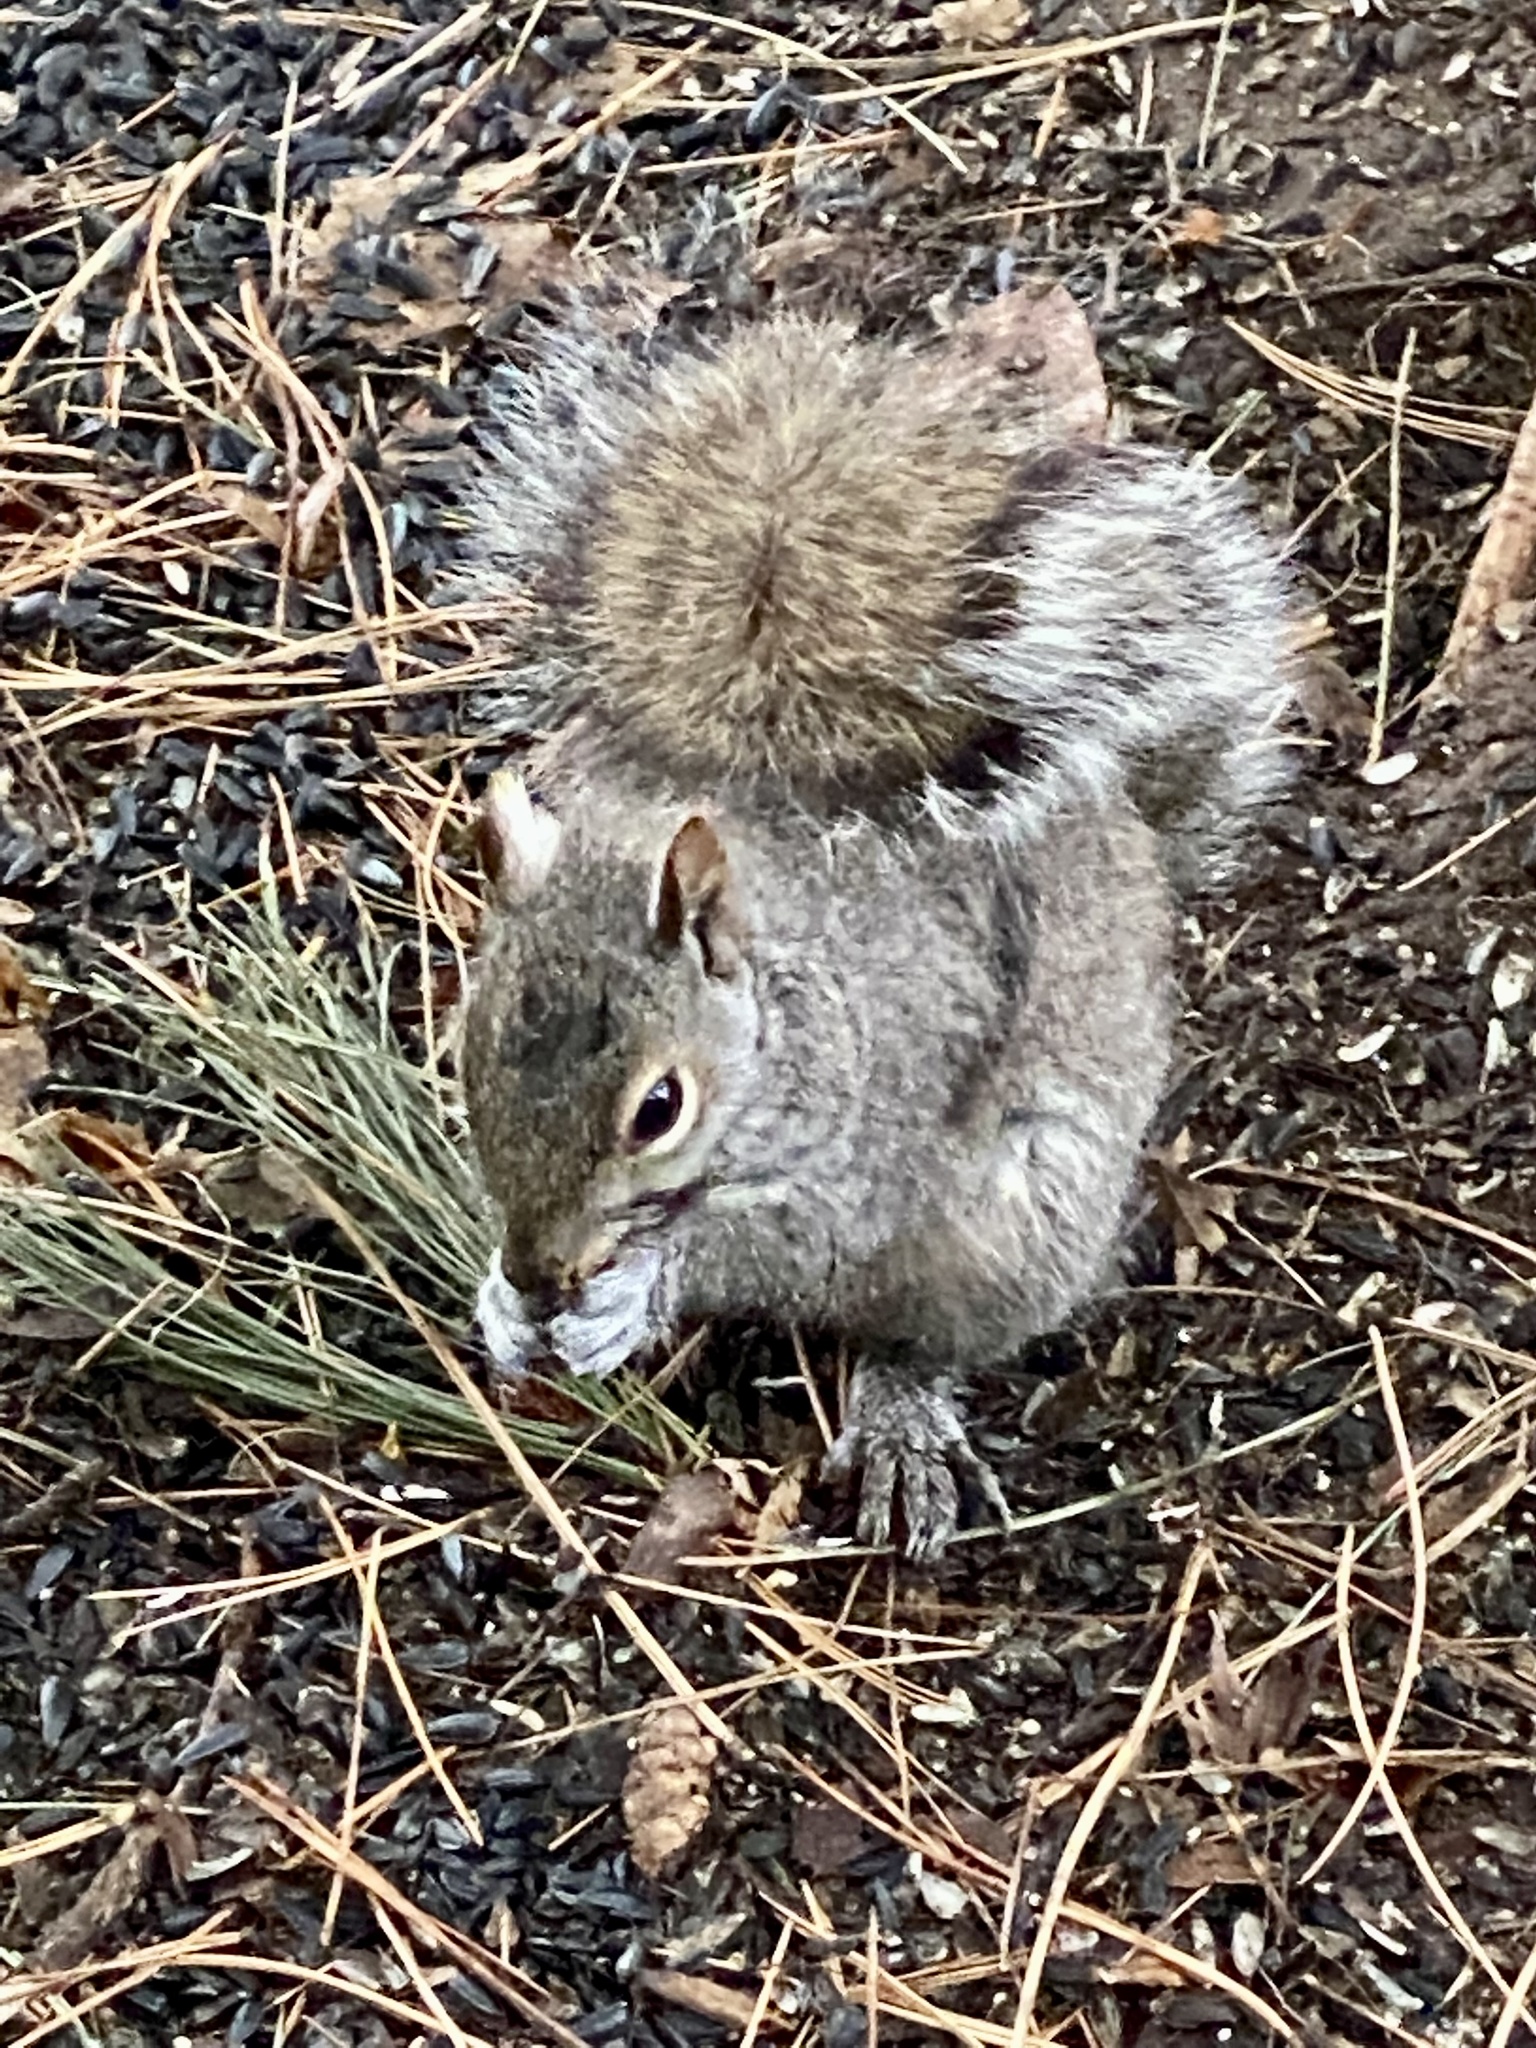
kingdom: Animalia
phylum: Chordata
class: Mammalia
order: Rodentia
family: Sciuridae
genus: Sciurus
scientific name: Sciurus carolinensis
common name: Eastern gray squirrel
